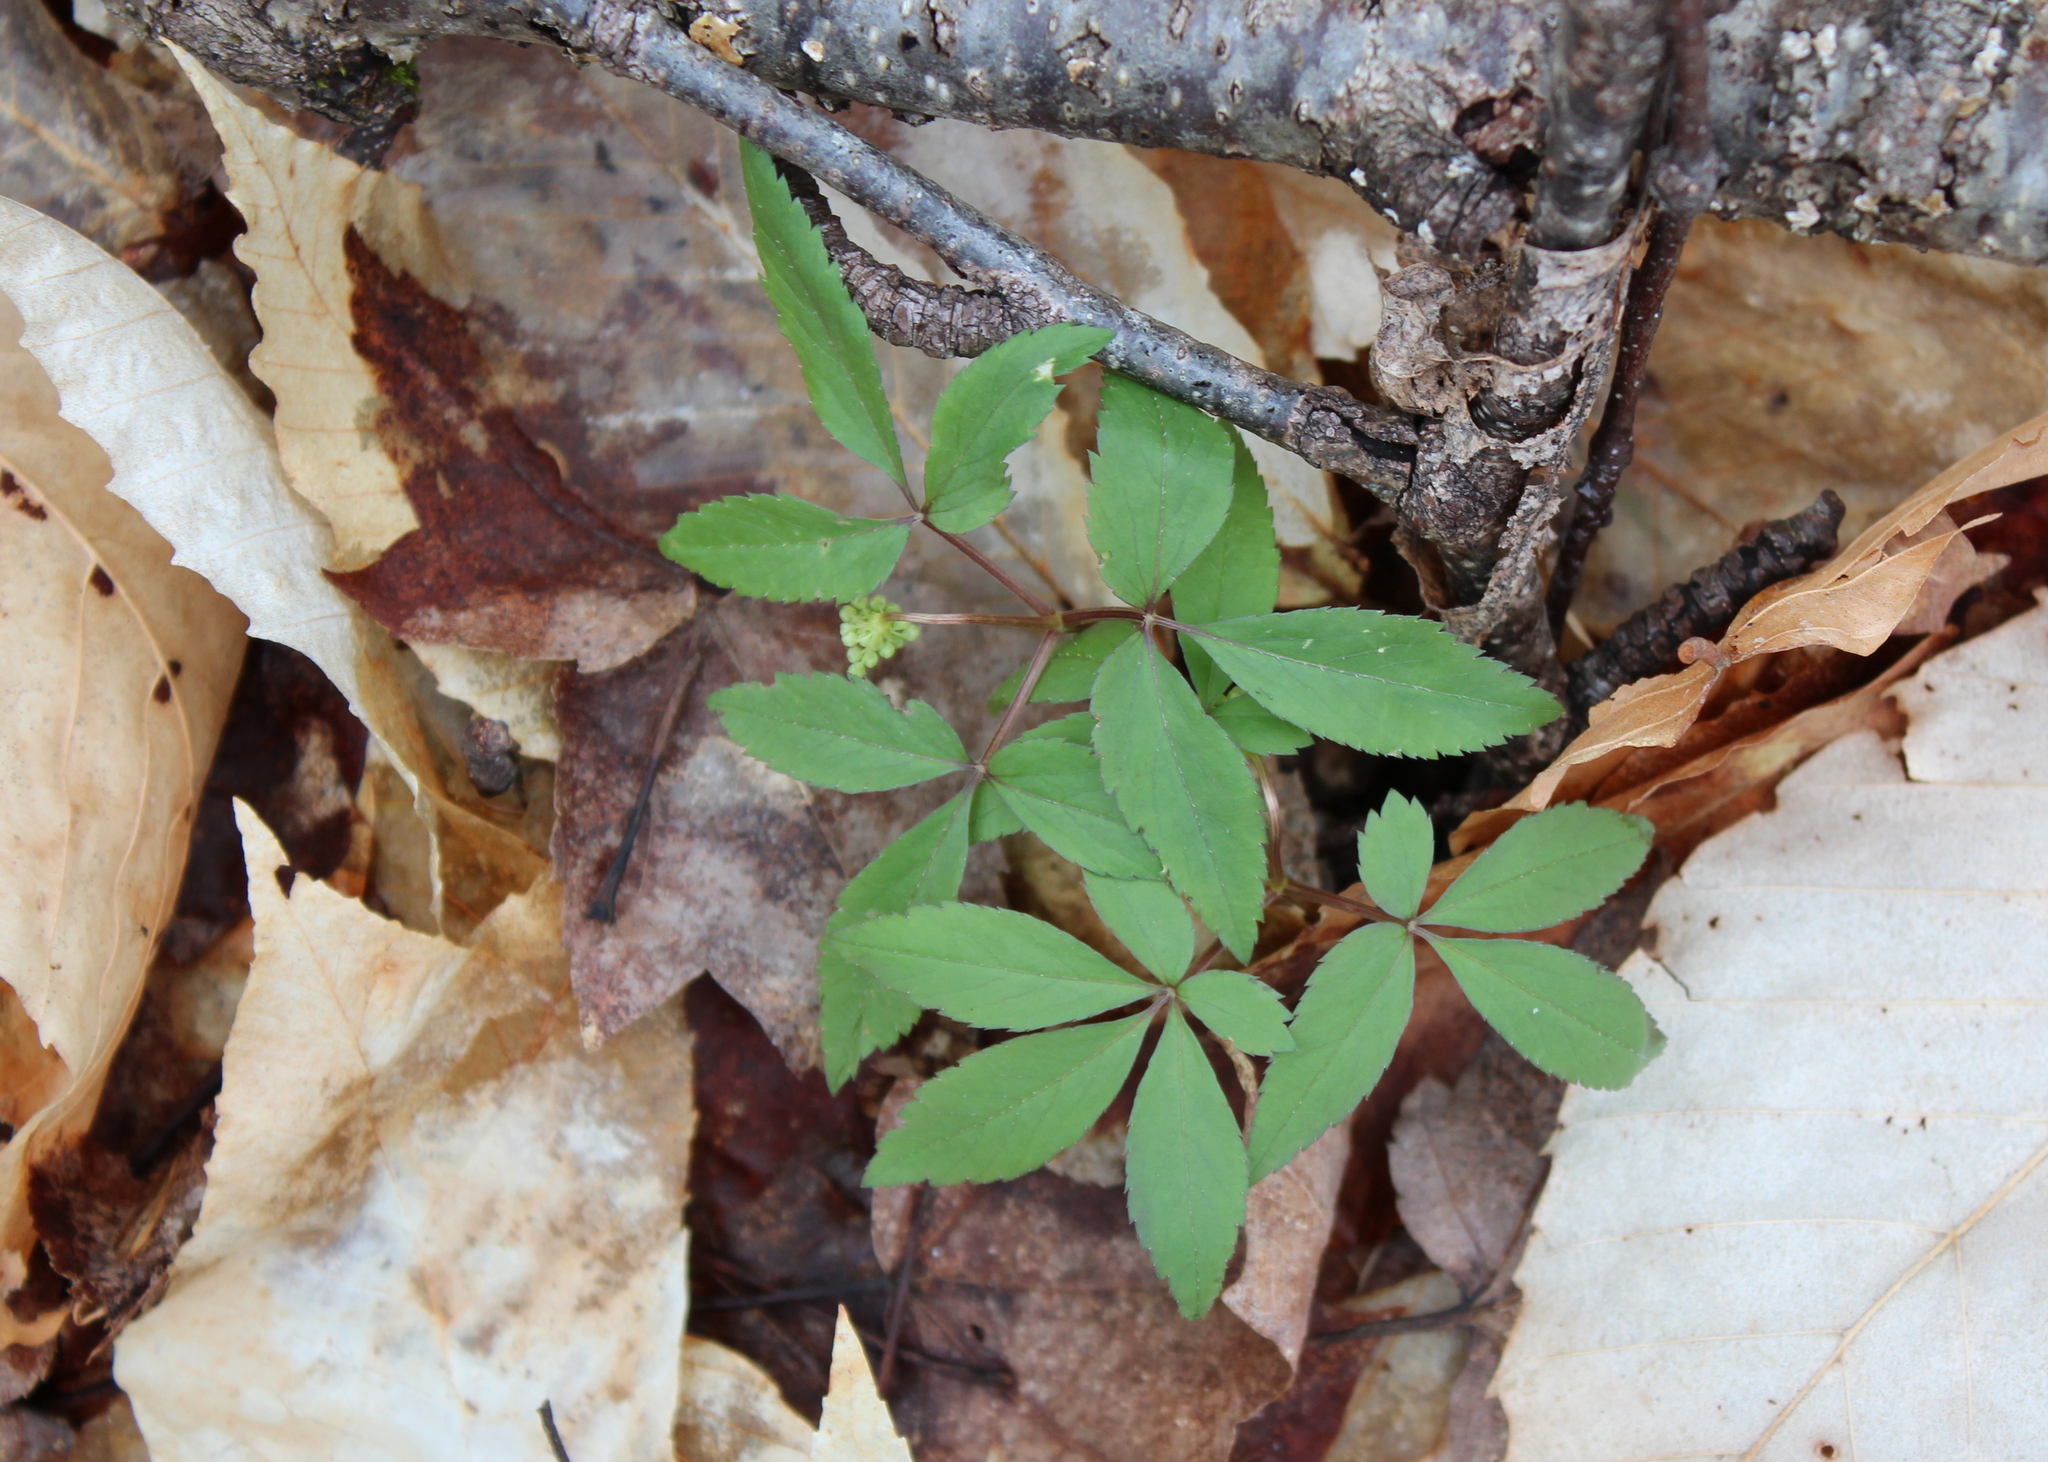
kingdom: Plantae
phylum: Tracheophyta
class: Magnoliopsida
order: Apiales
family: Araliaceae
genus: Panax
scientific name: Panax trifolius
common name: Dwarf ginseng
